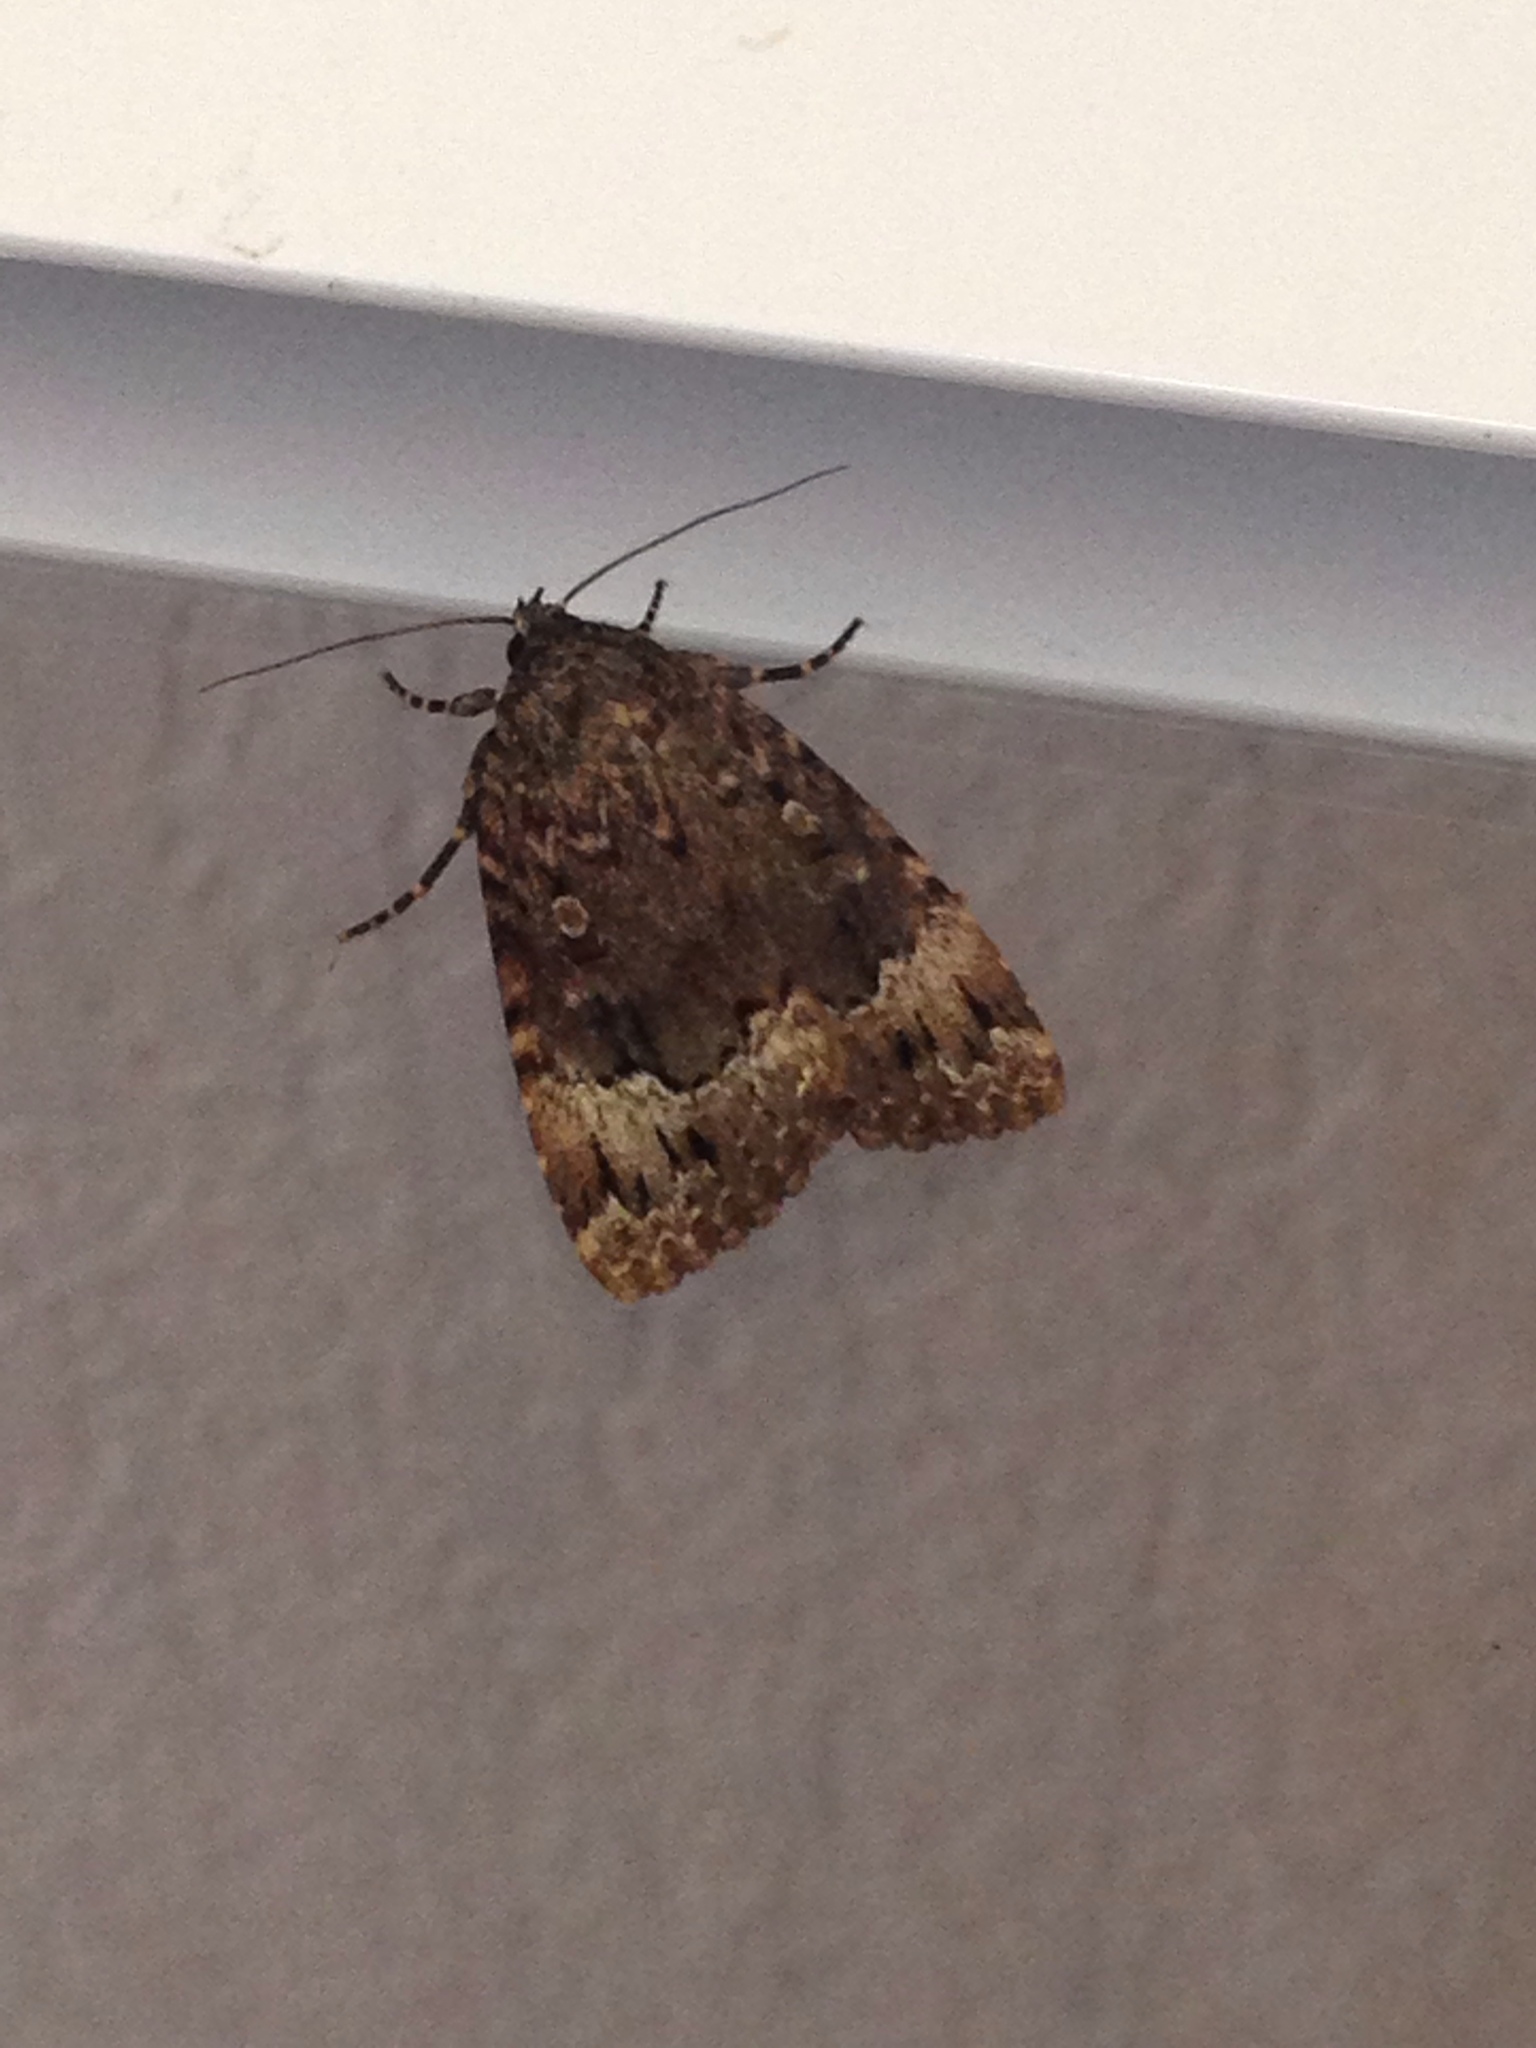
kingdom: Animalia
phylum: Arthropoda
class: Insecta
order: Lepidoptera
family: Noctuidae
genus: Amphipyra
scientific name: Amphipyra pyramidoides
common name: American copper underwing
